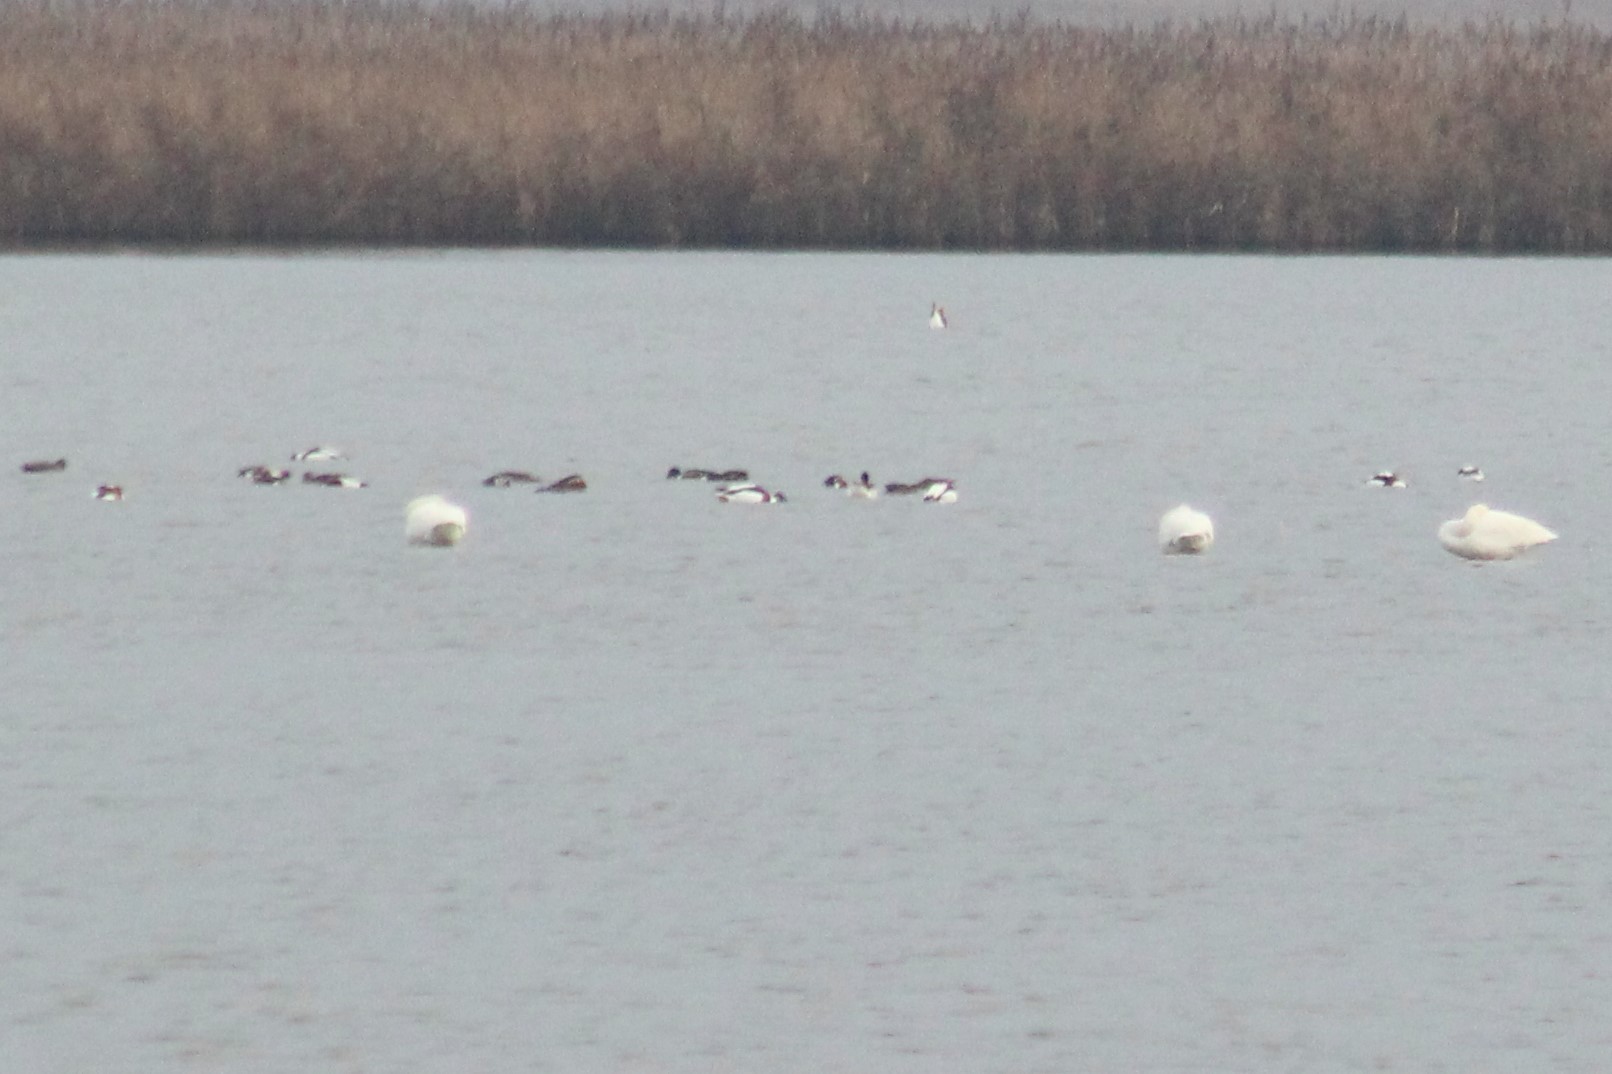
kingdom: Animalia
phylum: Chordata
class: Aves
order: Anseriformes
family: Anatidae
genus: Tadorna
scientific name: Tadorna tadorna
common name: Common shelduck
